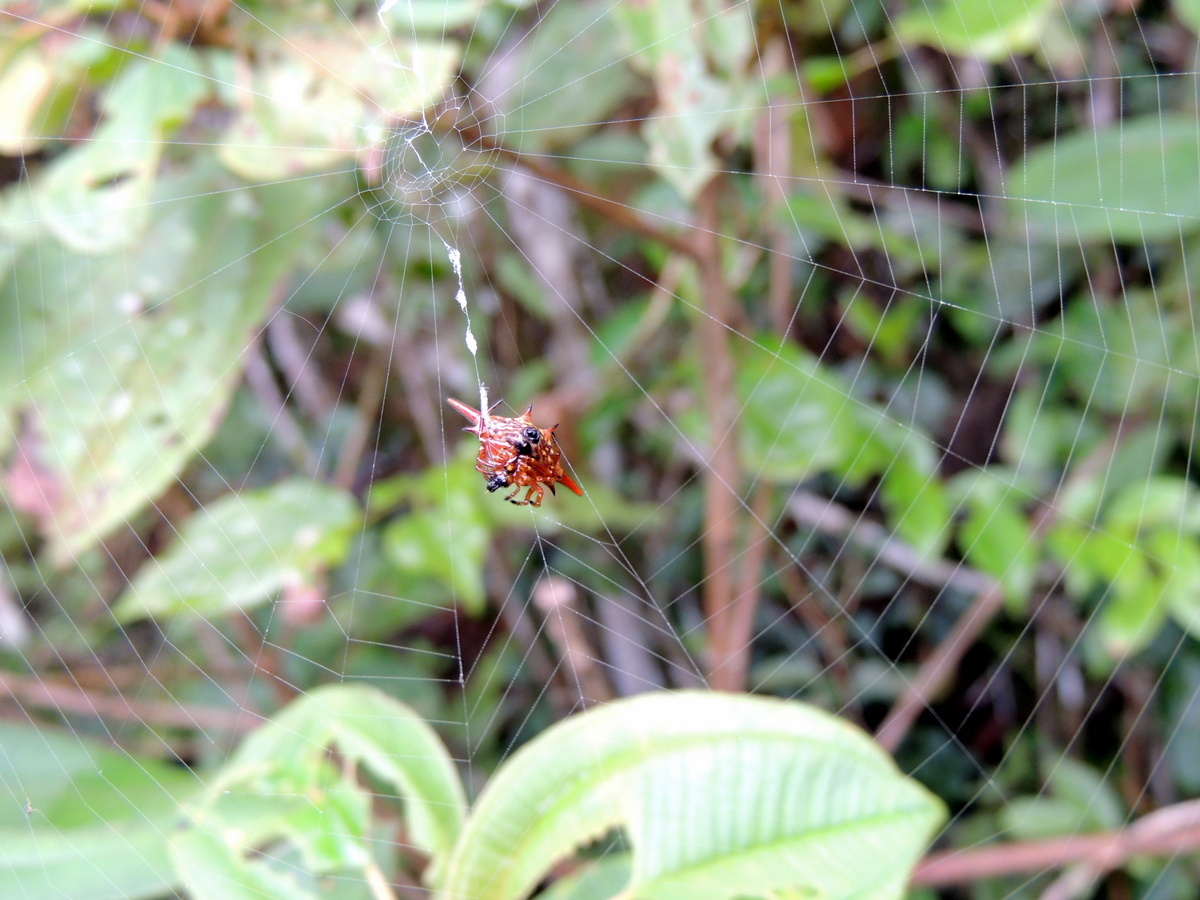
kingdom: Animalia
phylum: Arthropoda
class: Arachnida
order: Araneae
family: Araneidae
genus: Gasteracantha
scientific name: Gasteracantha versicolor
